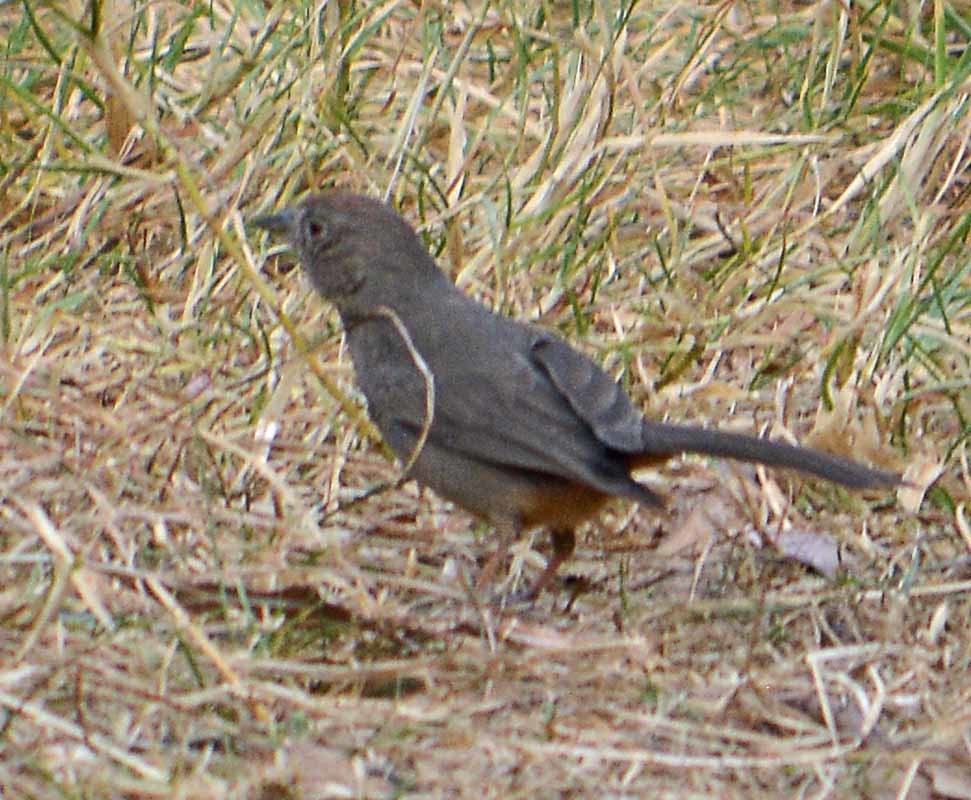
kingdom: Animalia
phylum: Chordata
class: Aves
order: Passeriformes
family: Passerellidae
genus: Melozone
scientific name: Melozone fusca
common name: Canyon towhee
